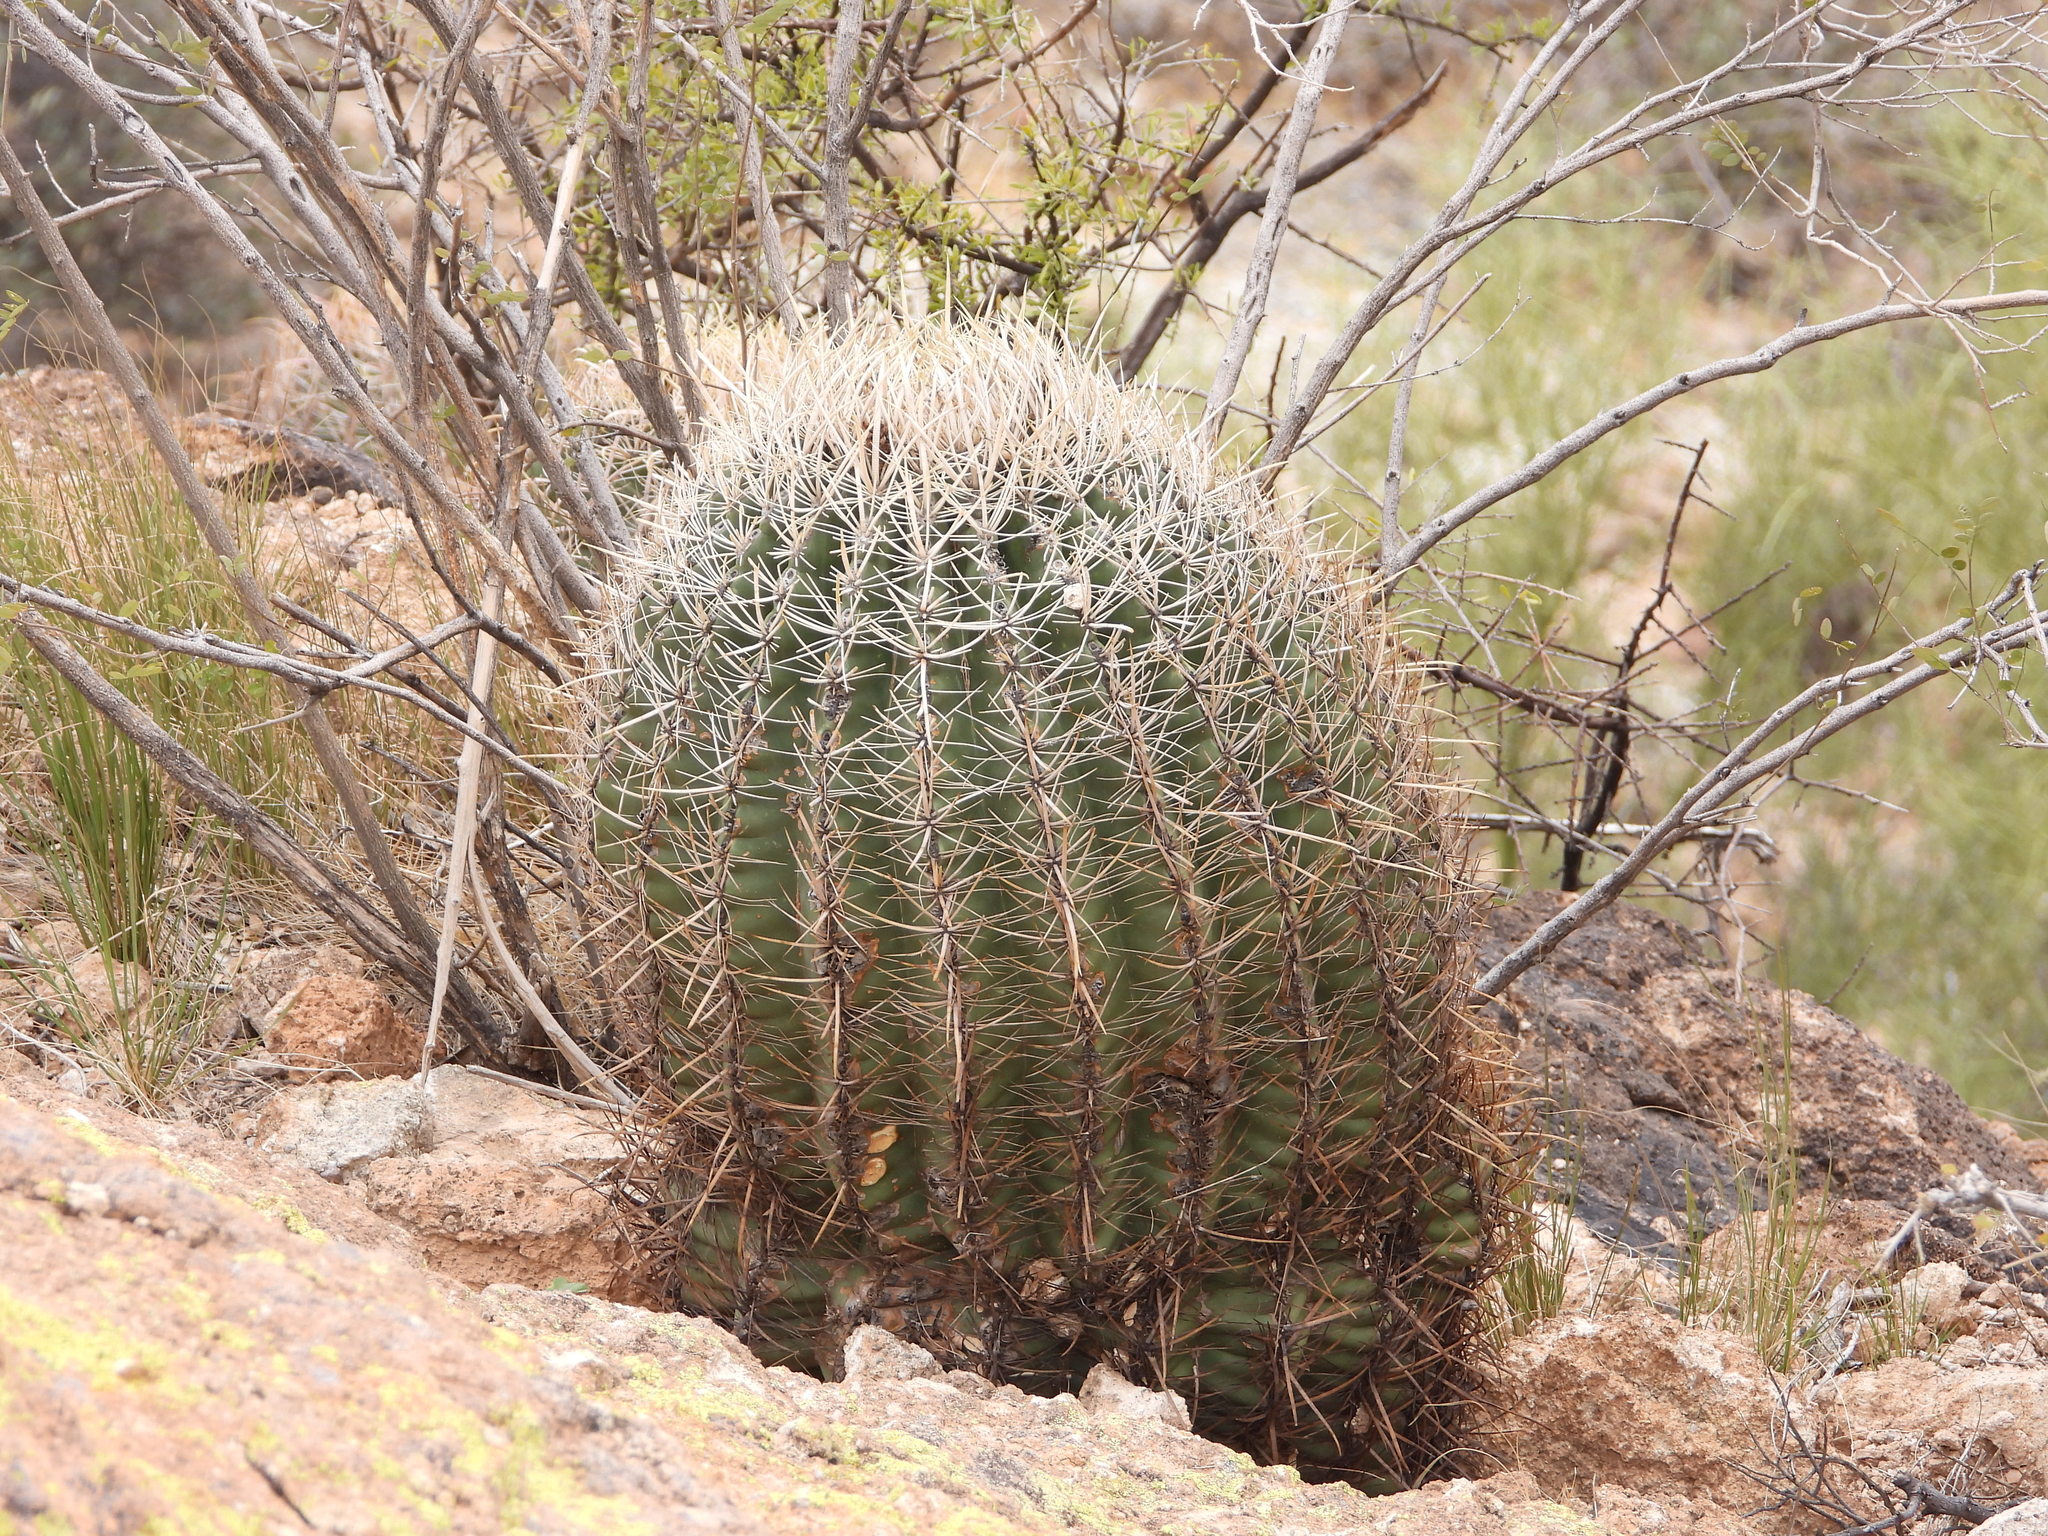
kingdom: Plantae
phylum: Tracheophyta
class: Magnoliopsida
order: Caryophyllales
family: Cactaceae
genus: Ferocactus
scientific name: Ferocactus cylindraceus
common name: California barrel cactus
